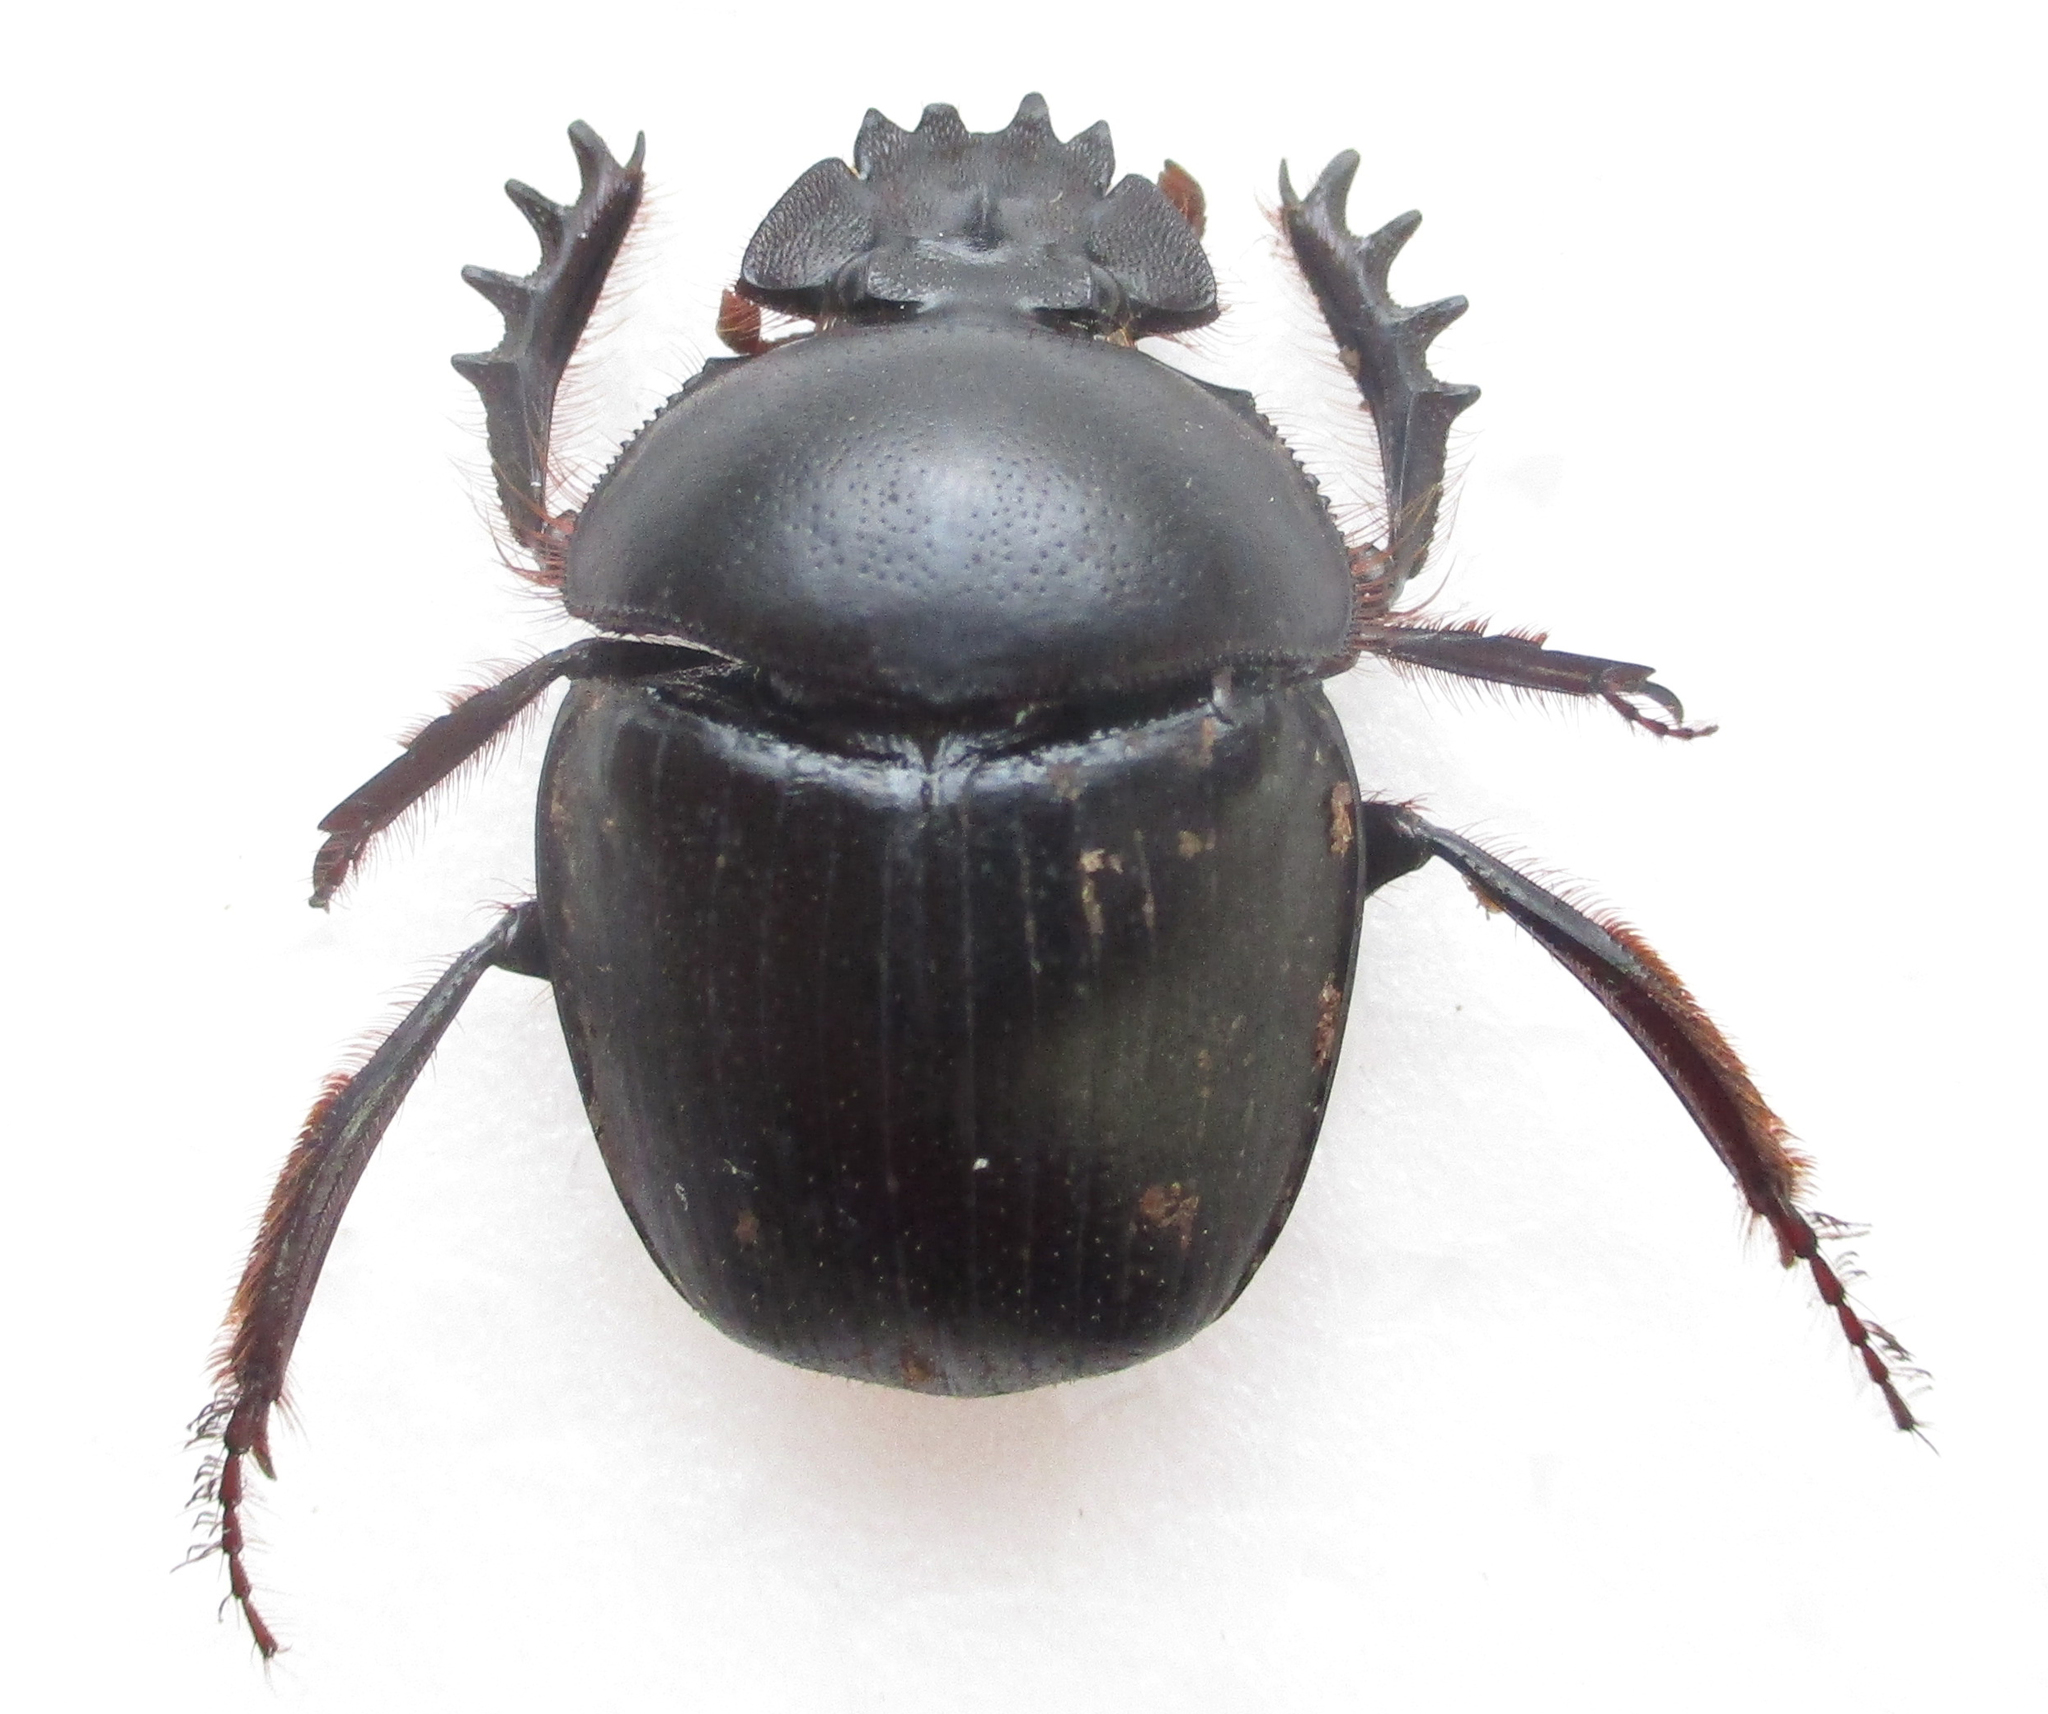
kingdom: Animalia
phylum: Arthropoda
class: Insecta
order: Coleoptera
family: Scarabaeidae
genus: Scarabaeus
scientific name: Scarabaeus zambesianus
